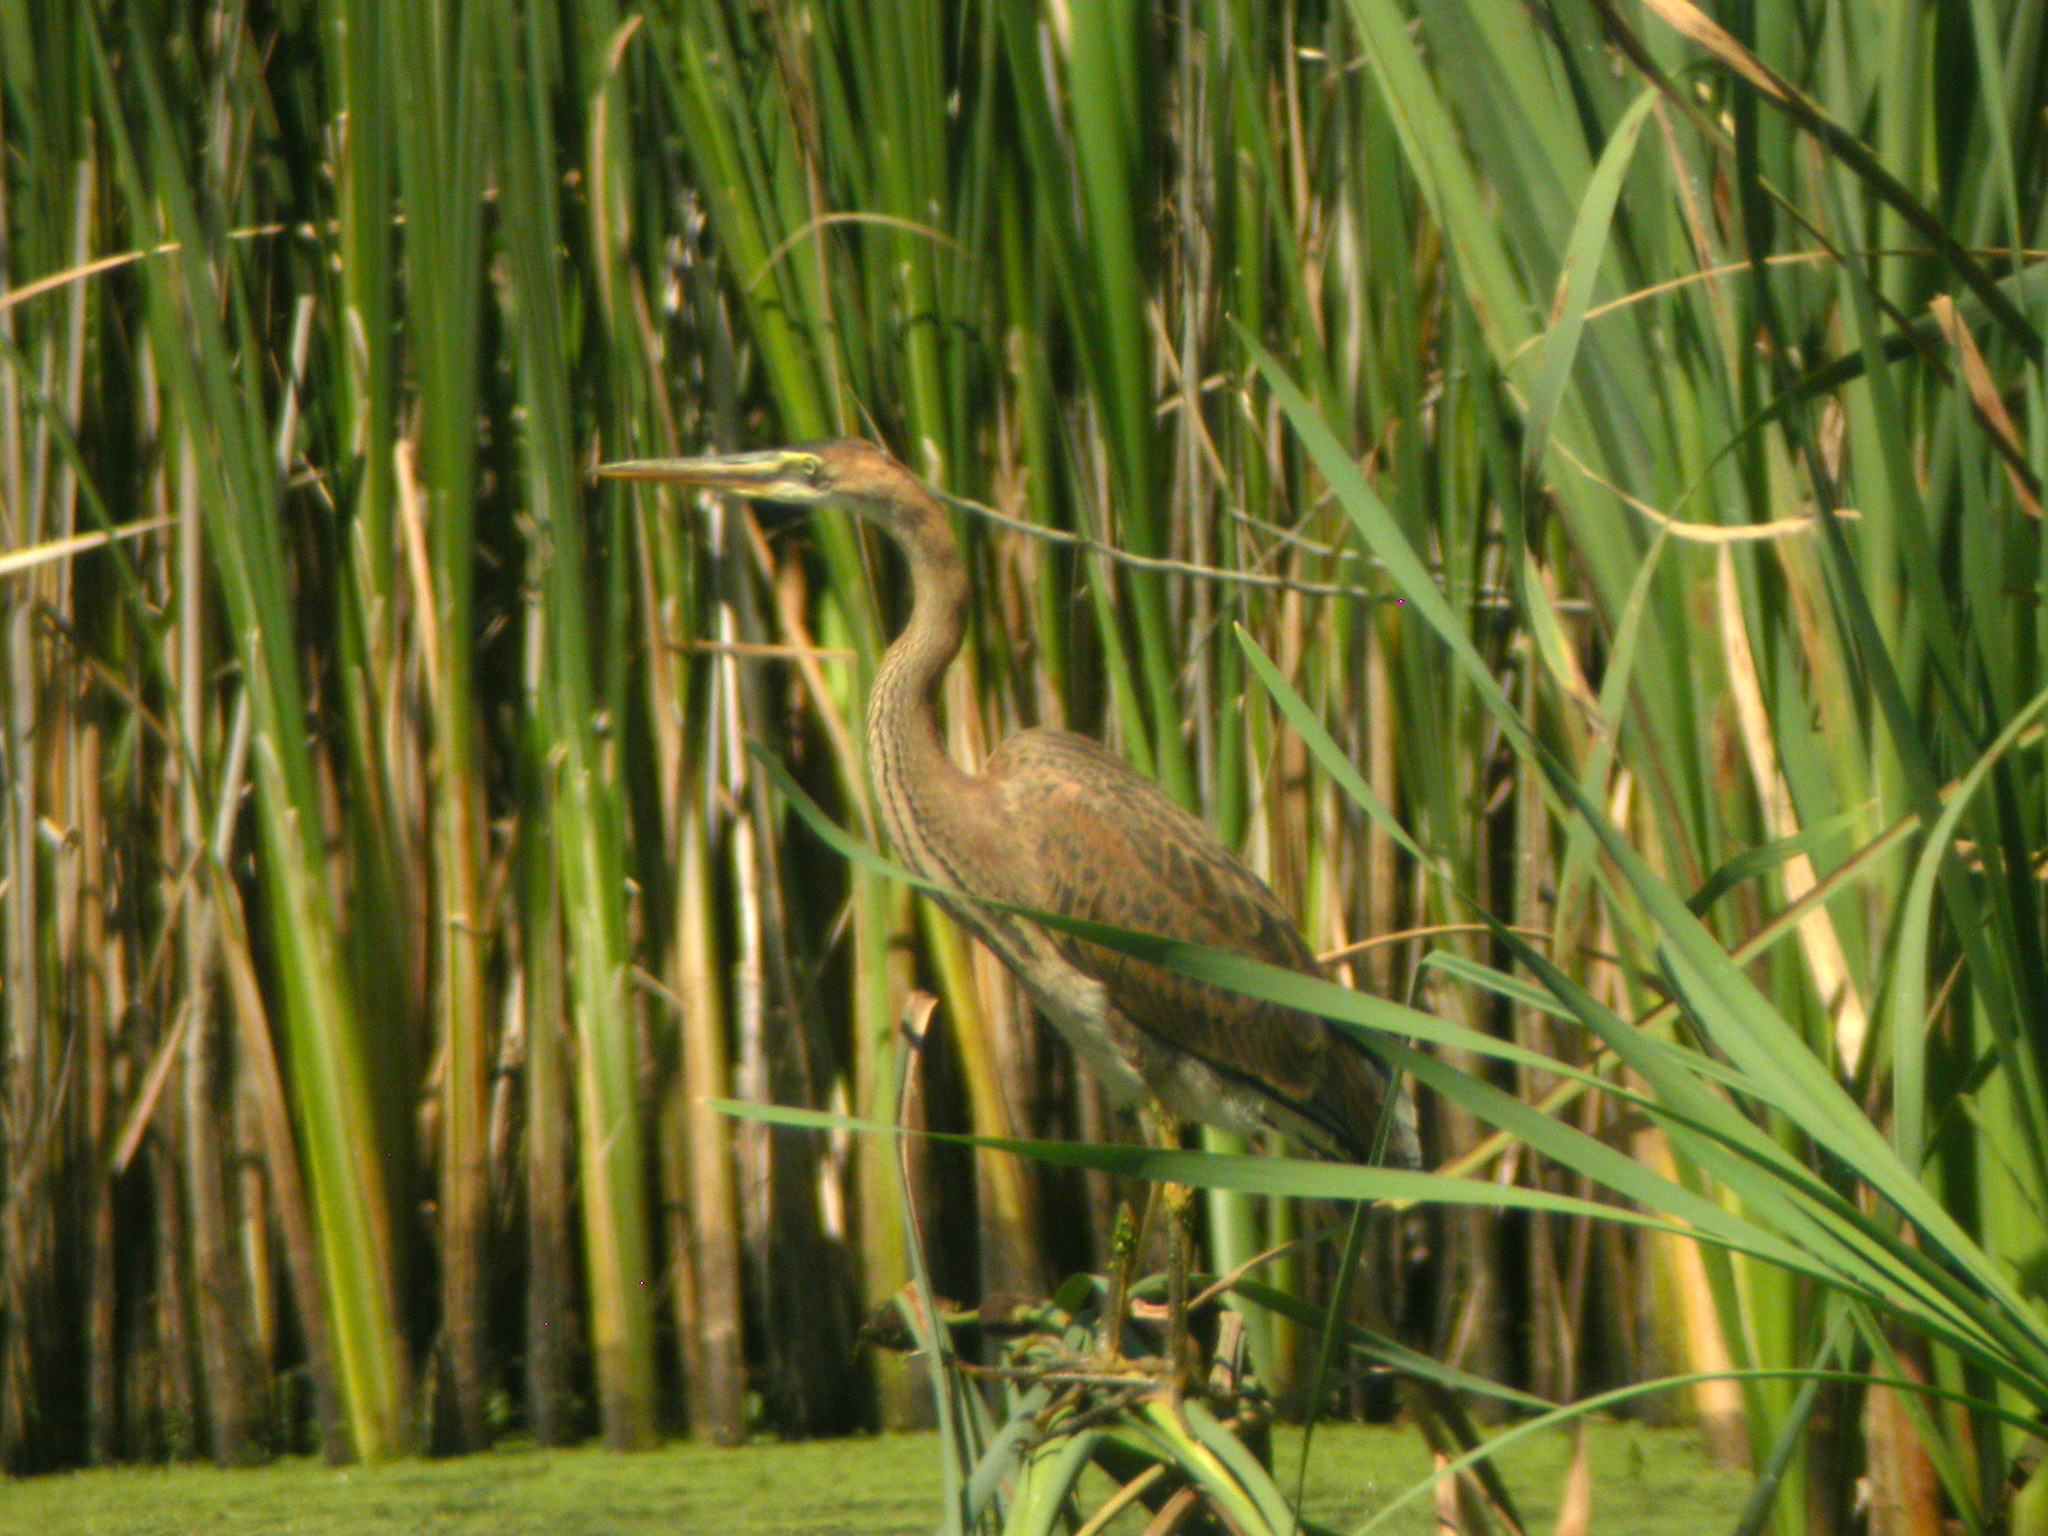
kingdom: Animalia
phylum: Chordata
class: Aves
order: Pelecaniformes
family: Ardeidae
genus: Ardea
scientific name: Ardea purpurea
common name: Purple heron
